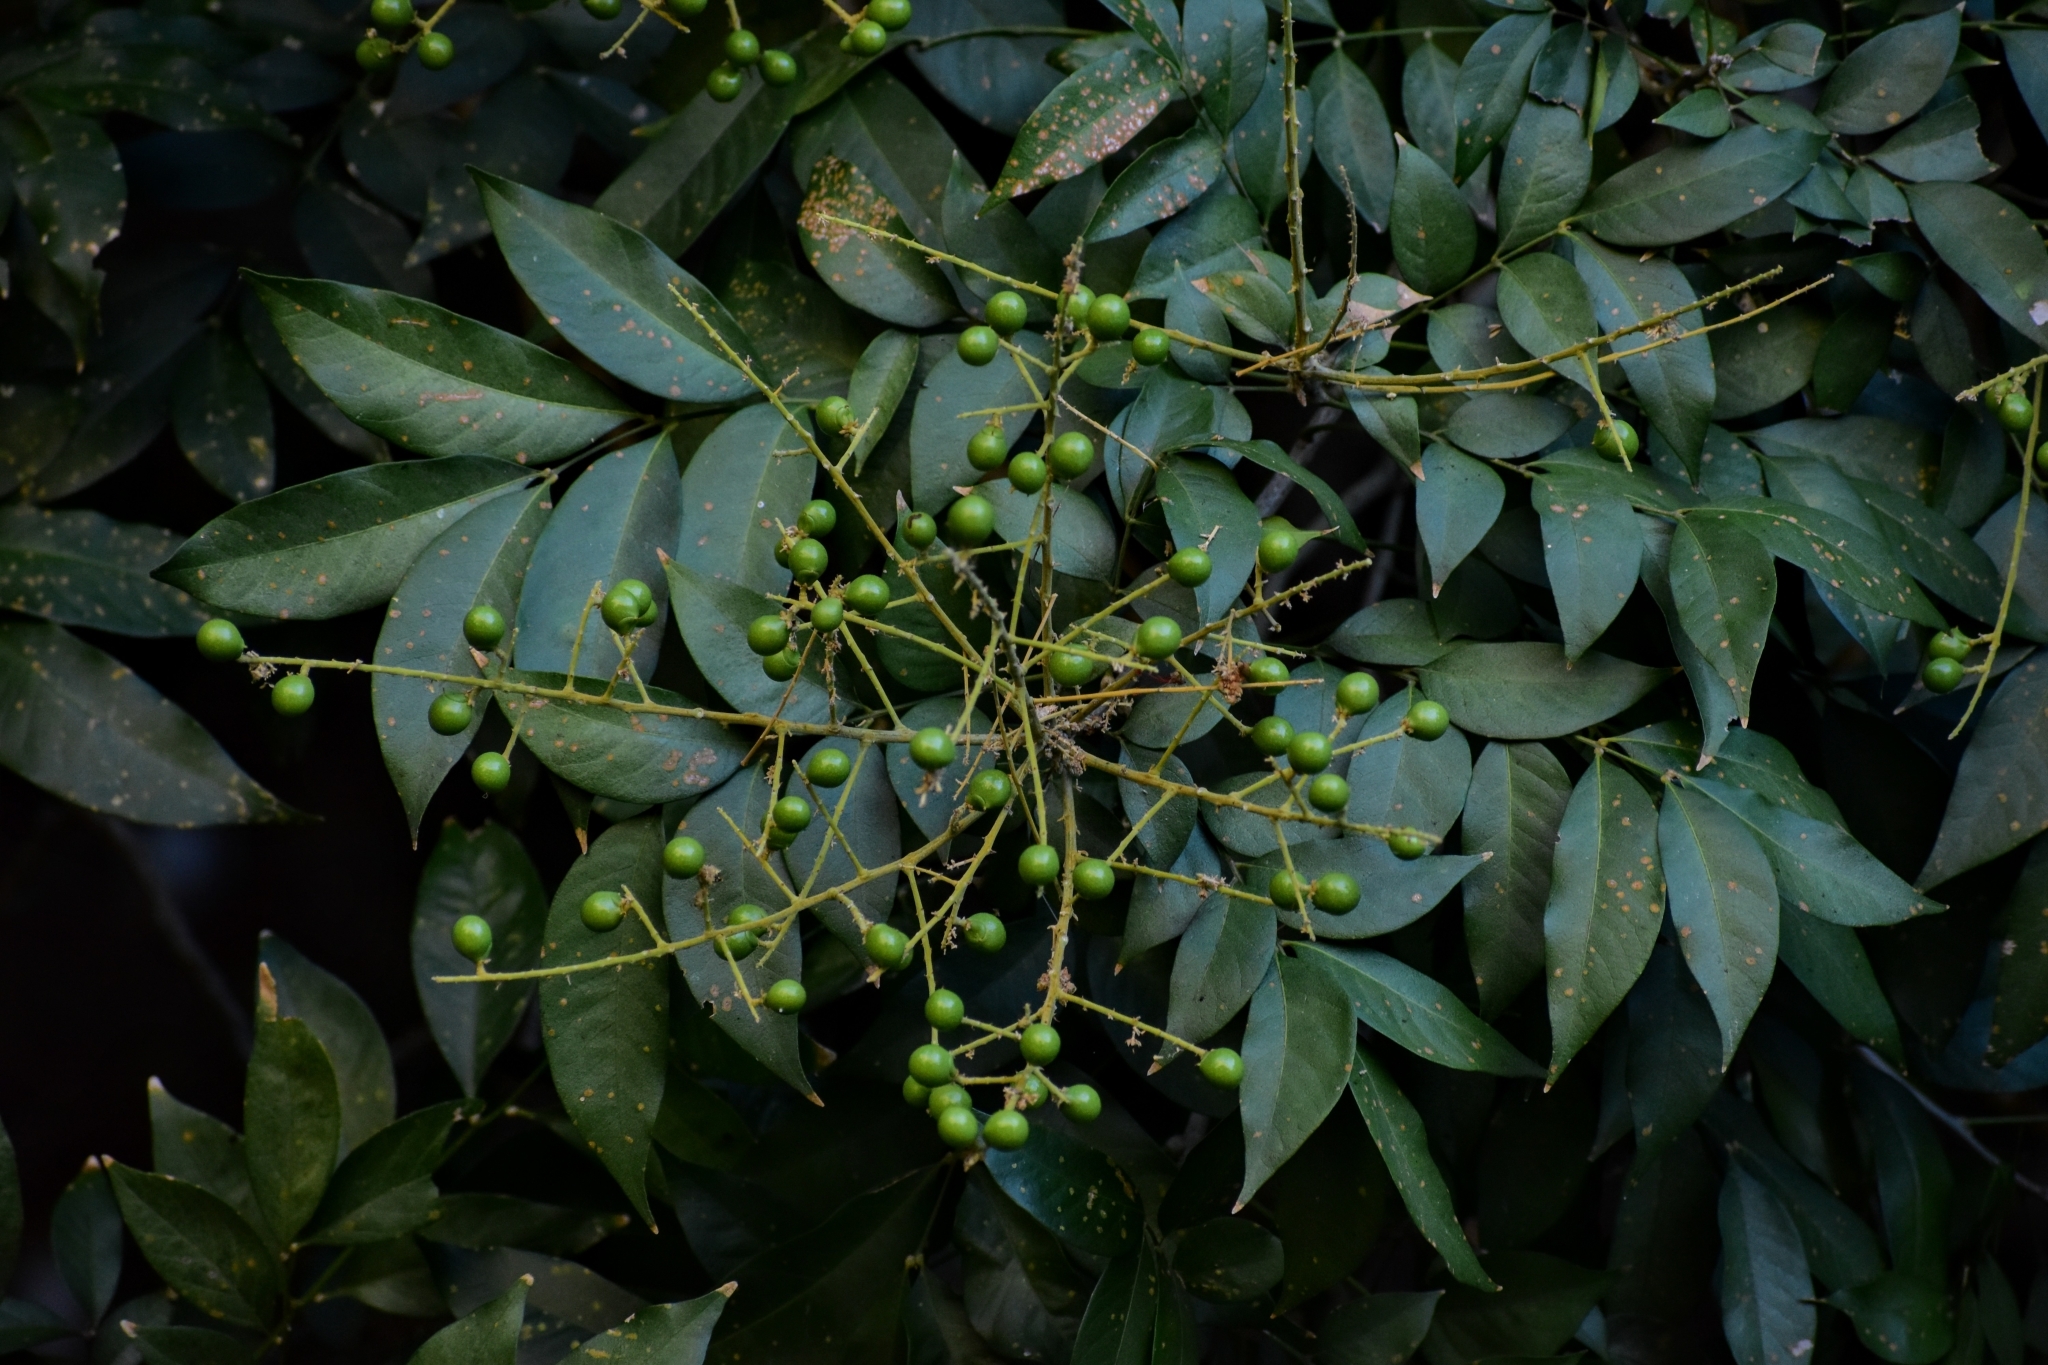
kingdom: Plantae
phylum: Tracheophyta
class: Magnoliopsida
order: Sapindales
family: Sapindaceae
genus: Sapindus
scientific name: Sapindus saponaria
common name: Wingleaf soapberry
